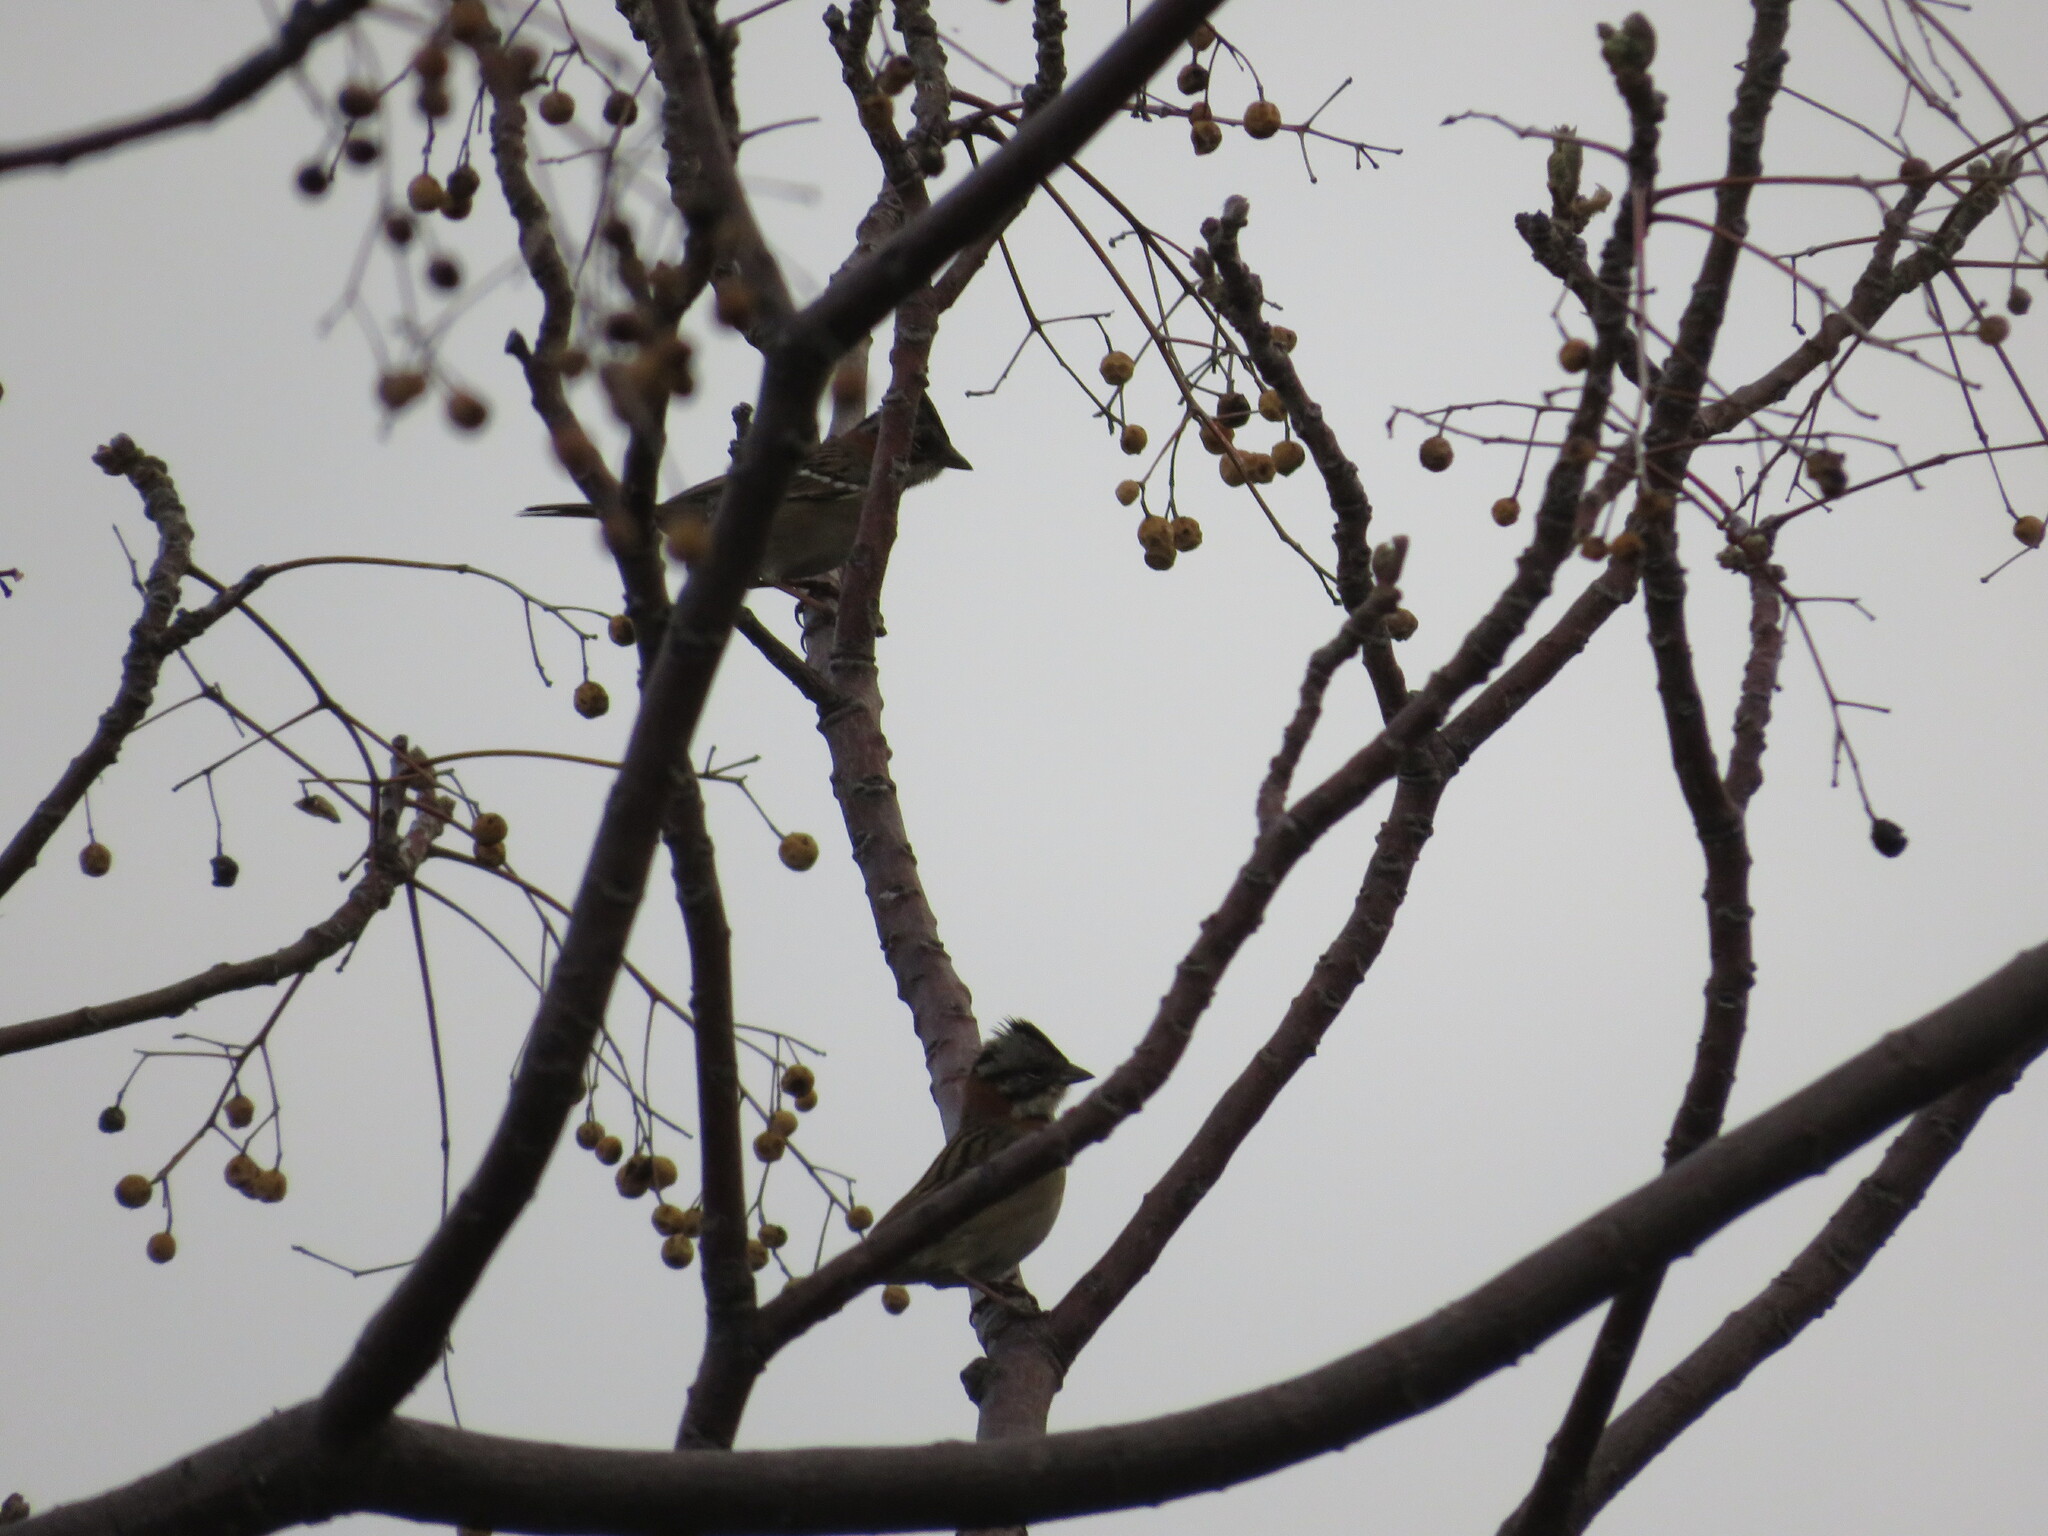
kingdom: Animalia
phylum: Chordata
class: Aves
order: Passeriformes
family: Passerellidae
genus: Zonotrichia
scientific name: Zonotrichia capensis
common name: Rufous-collared sparrow
